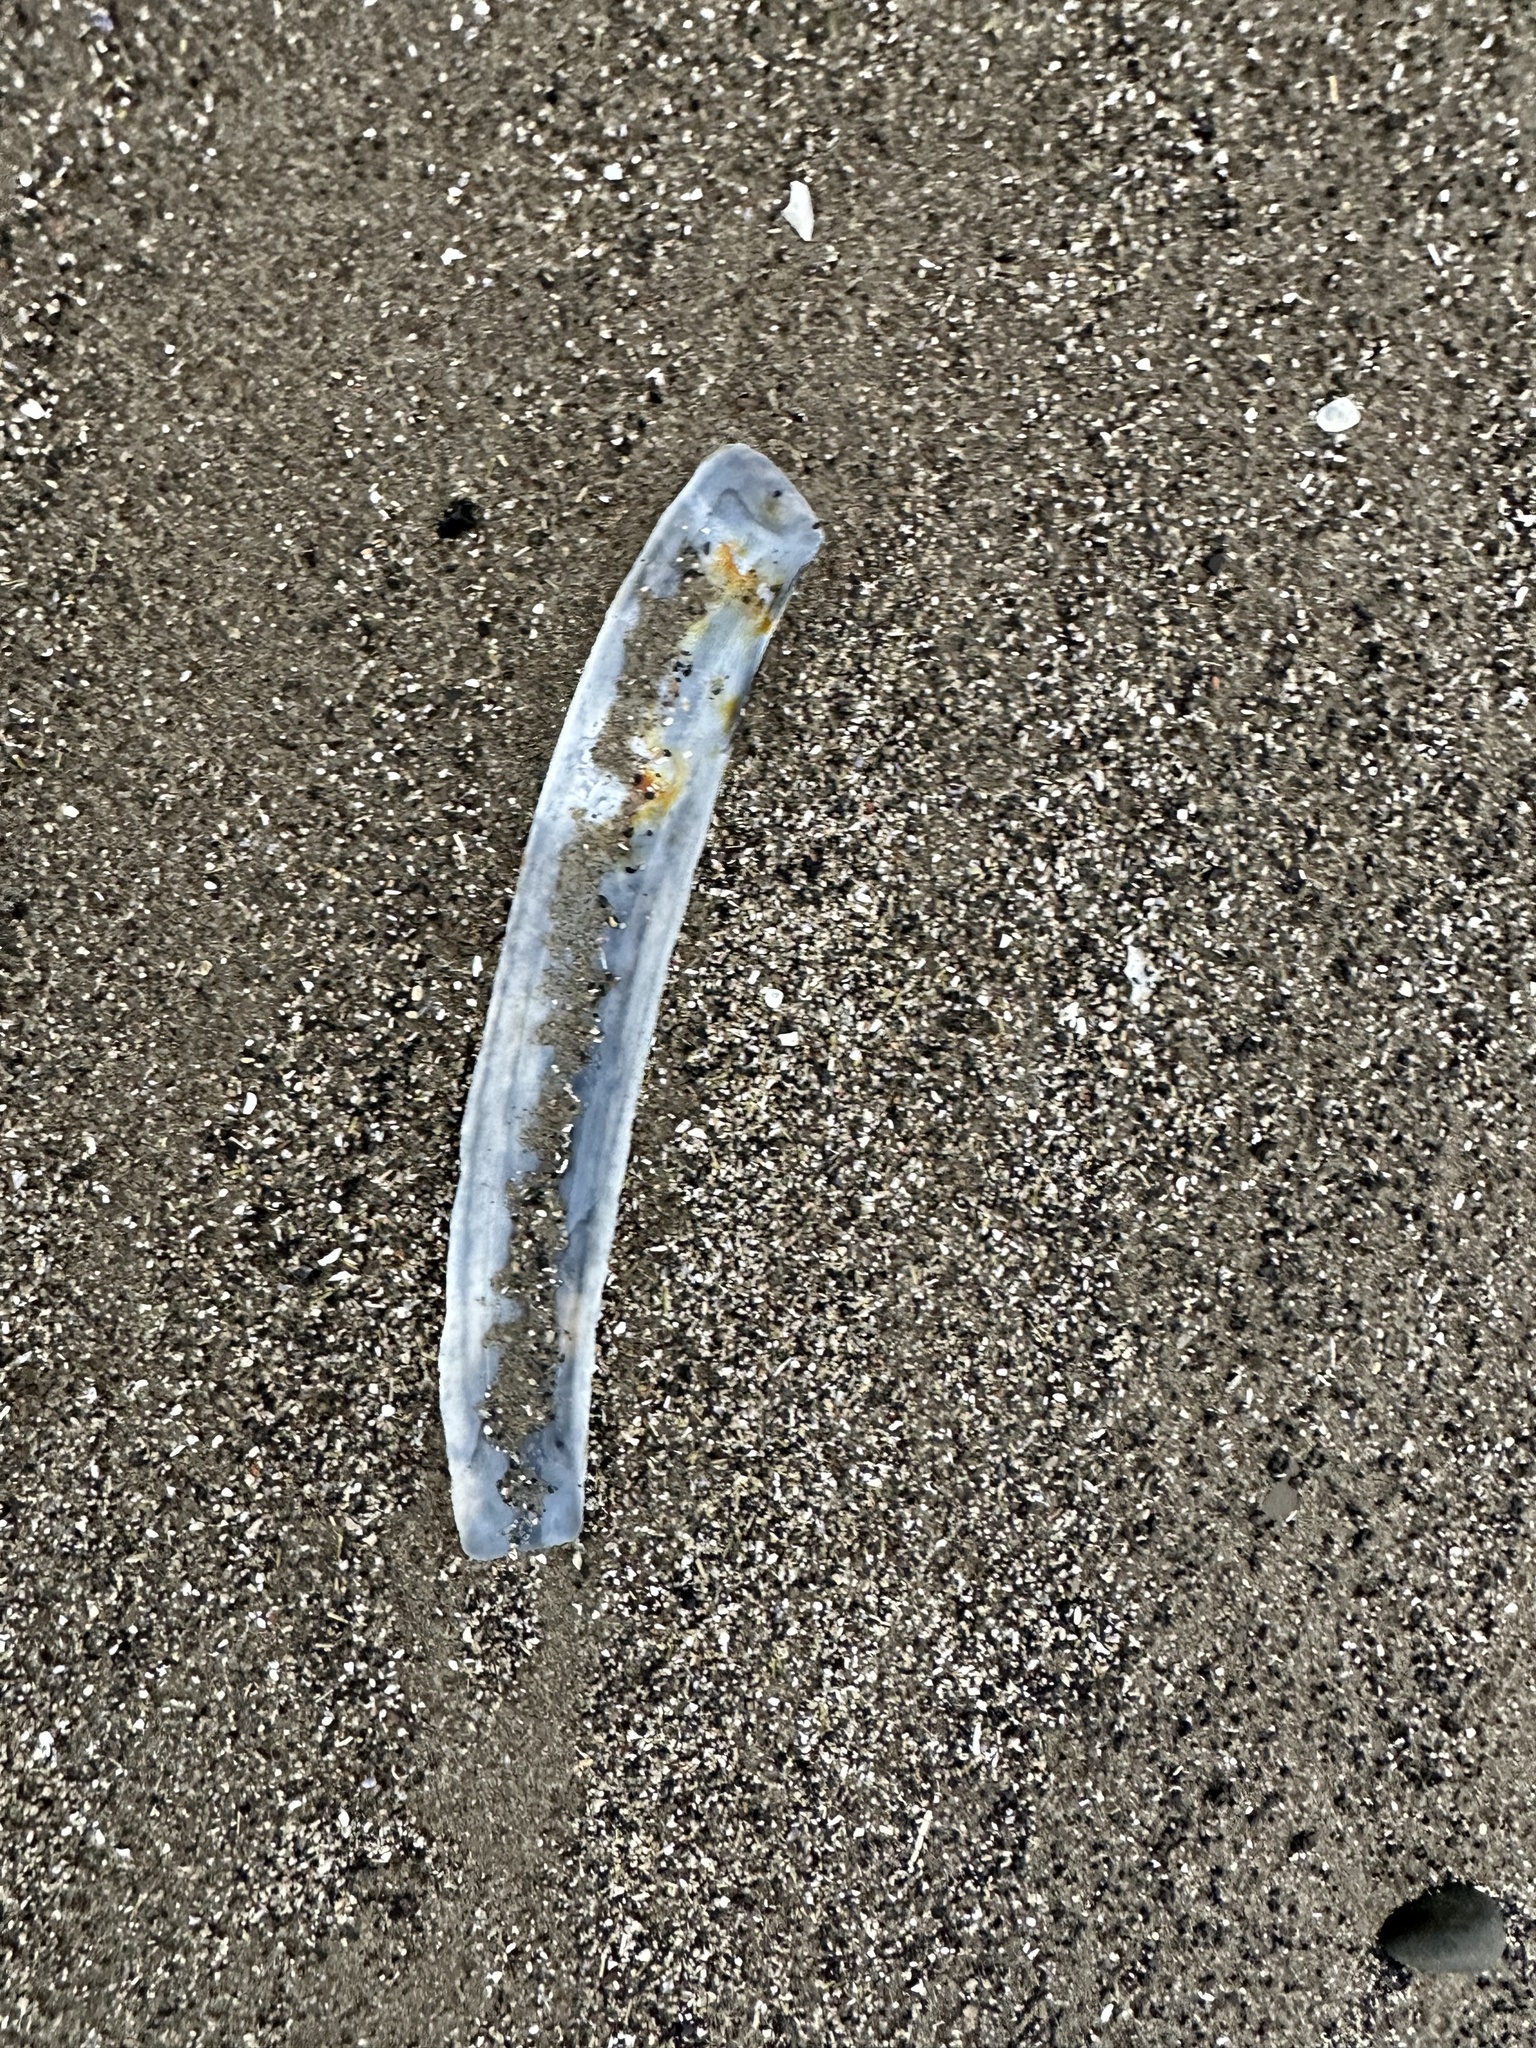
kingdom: Animalia
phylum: Mollusca
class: Bivalvia
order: Adapedonta
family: Pharidae
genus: Ensis
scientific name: Ensis leei
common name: American jack knife clam
